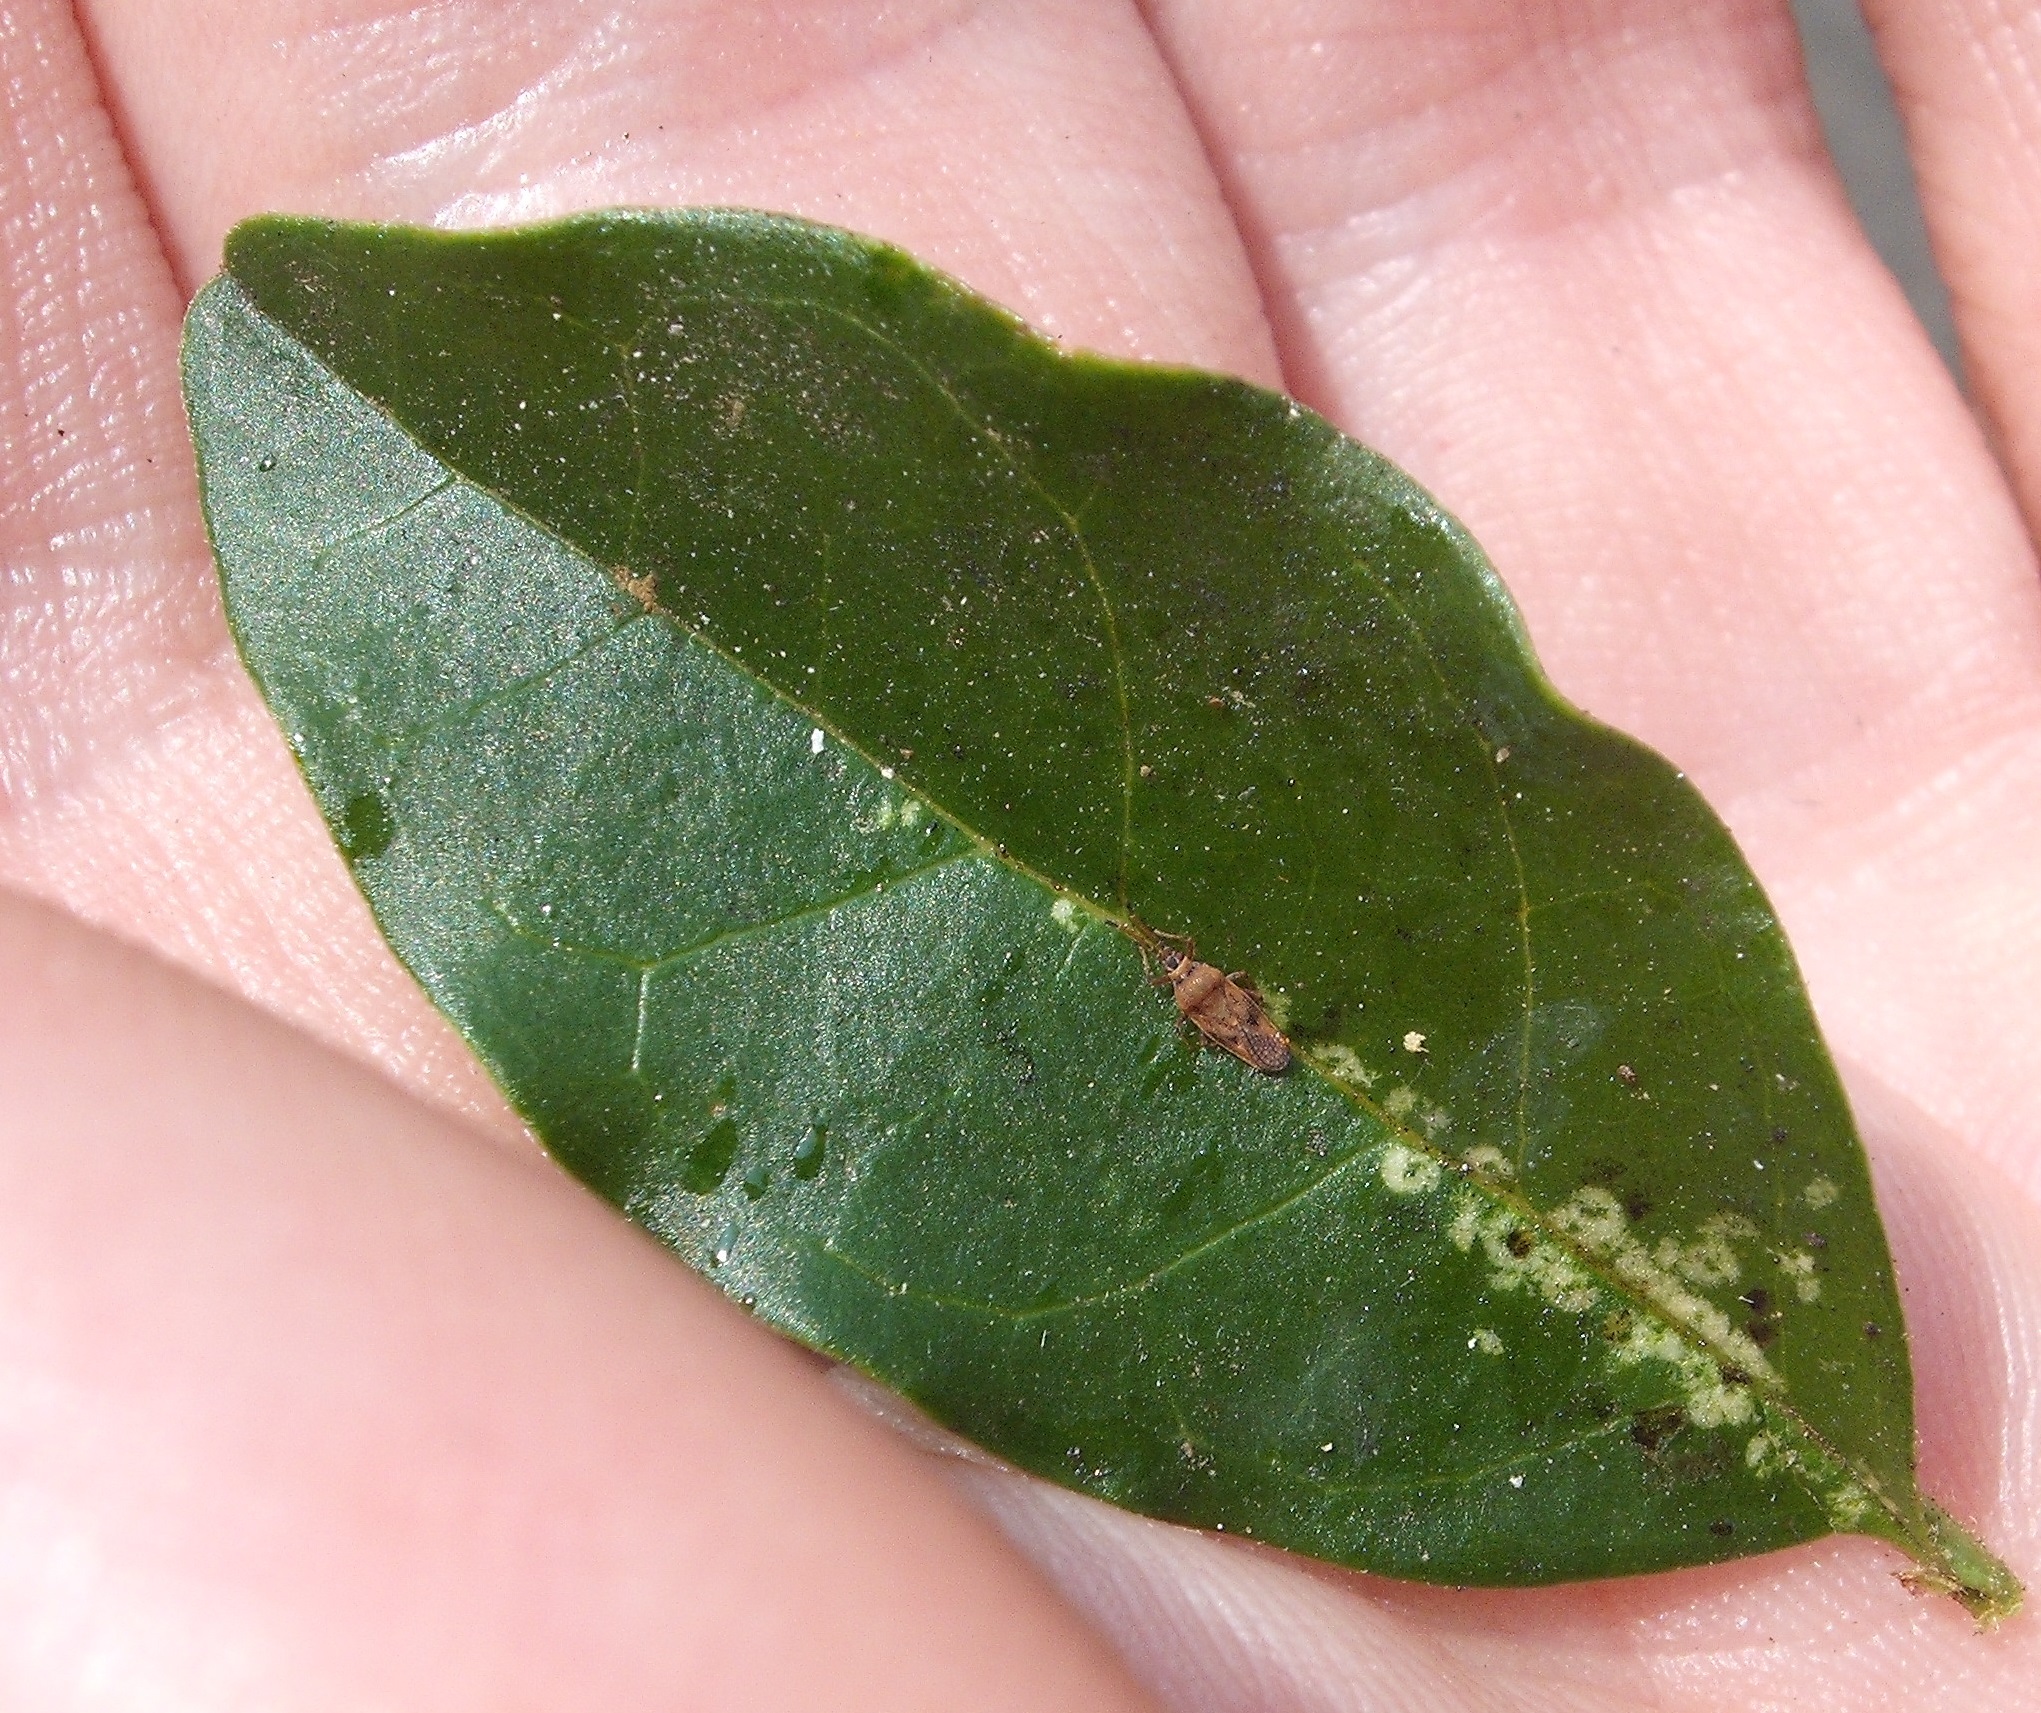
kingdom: Animalia
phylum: Arthropoda
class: Insecta
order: Hemiptera
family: Tingidae
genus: Leptoypha
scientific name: Leptoypha hospita
